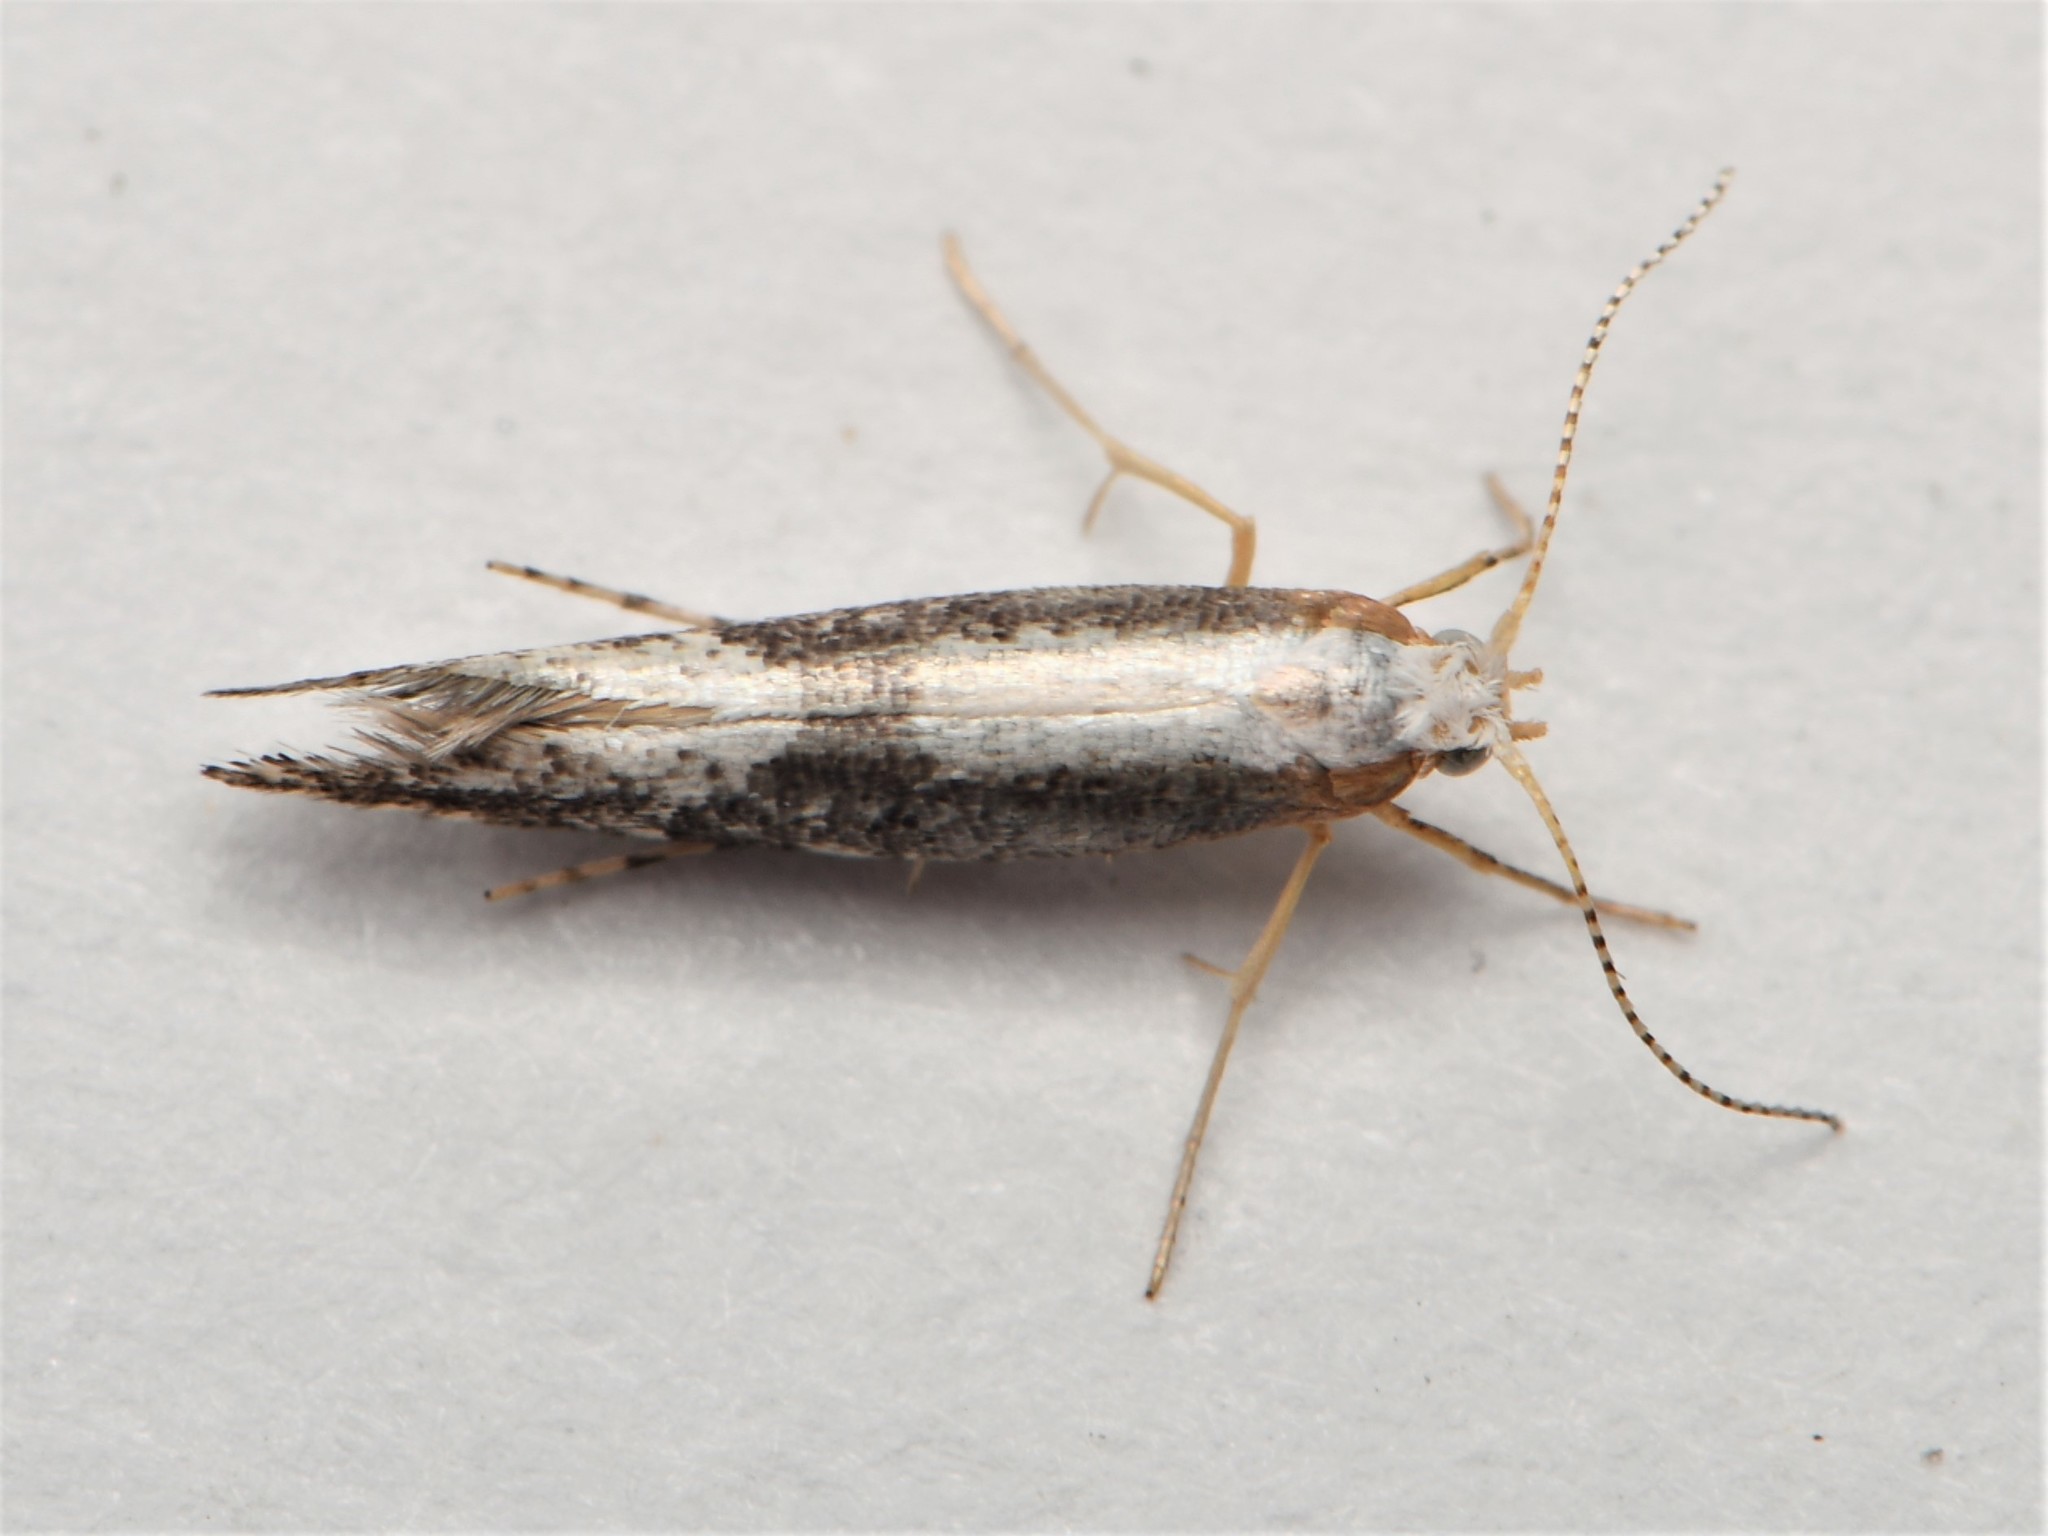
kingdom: Animalia
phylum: Arthropoda
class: Insecta
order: Lepidoptera
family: Argyresthiidae
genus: Argyresthia
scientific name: Argyresthia spinosella
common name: Blackthorn argent
